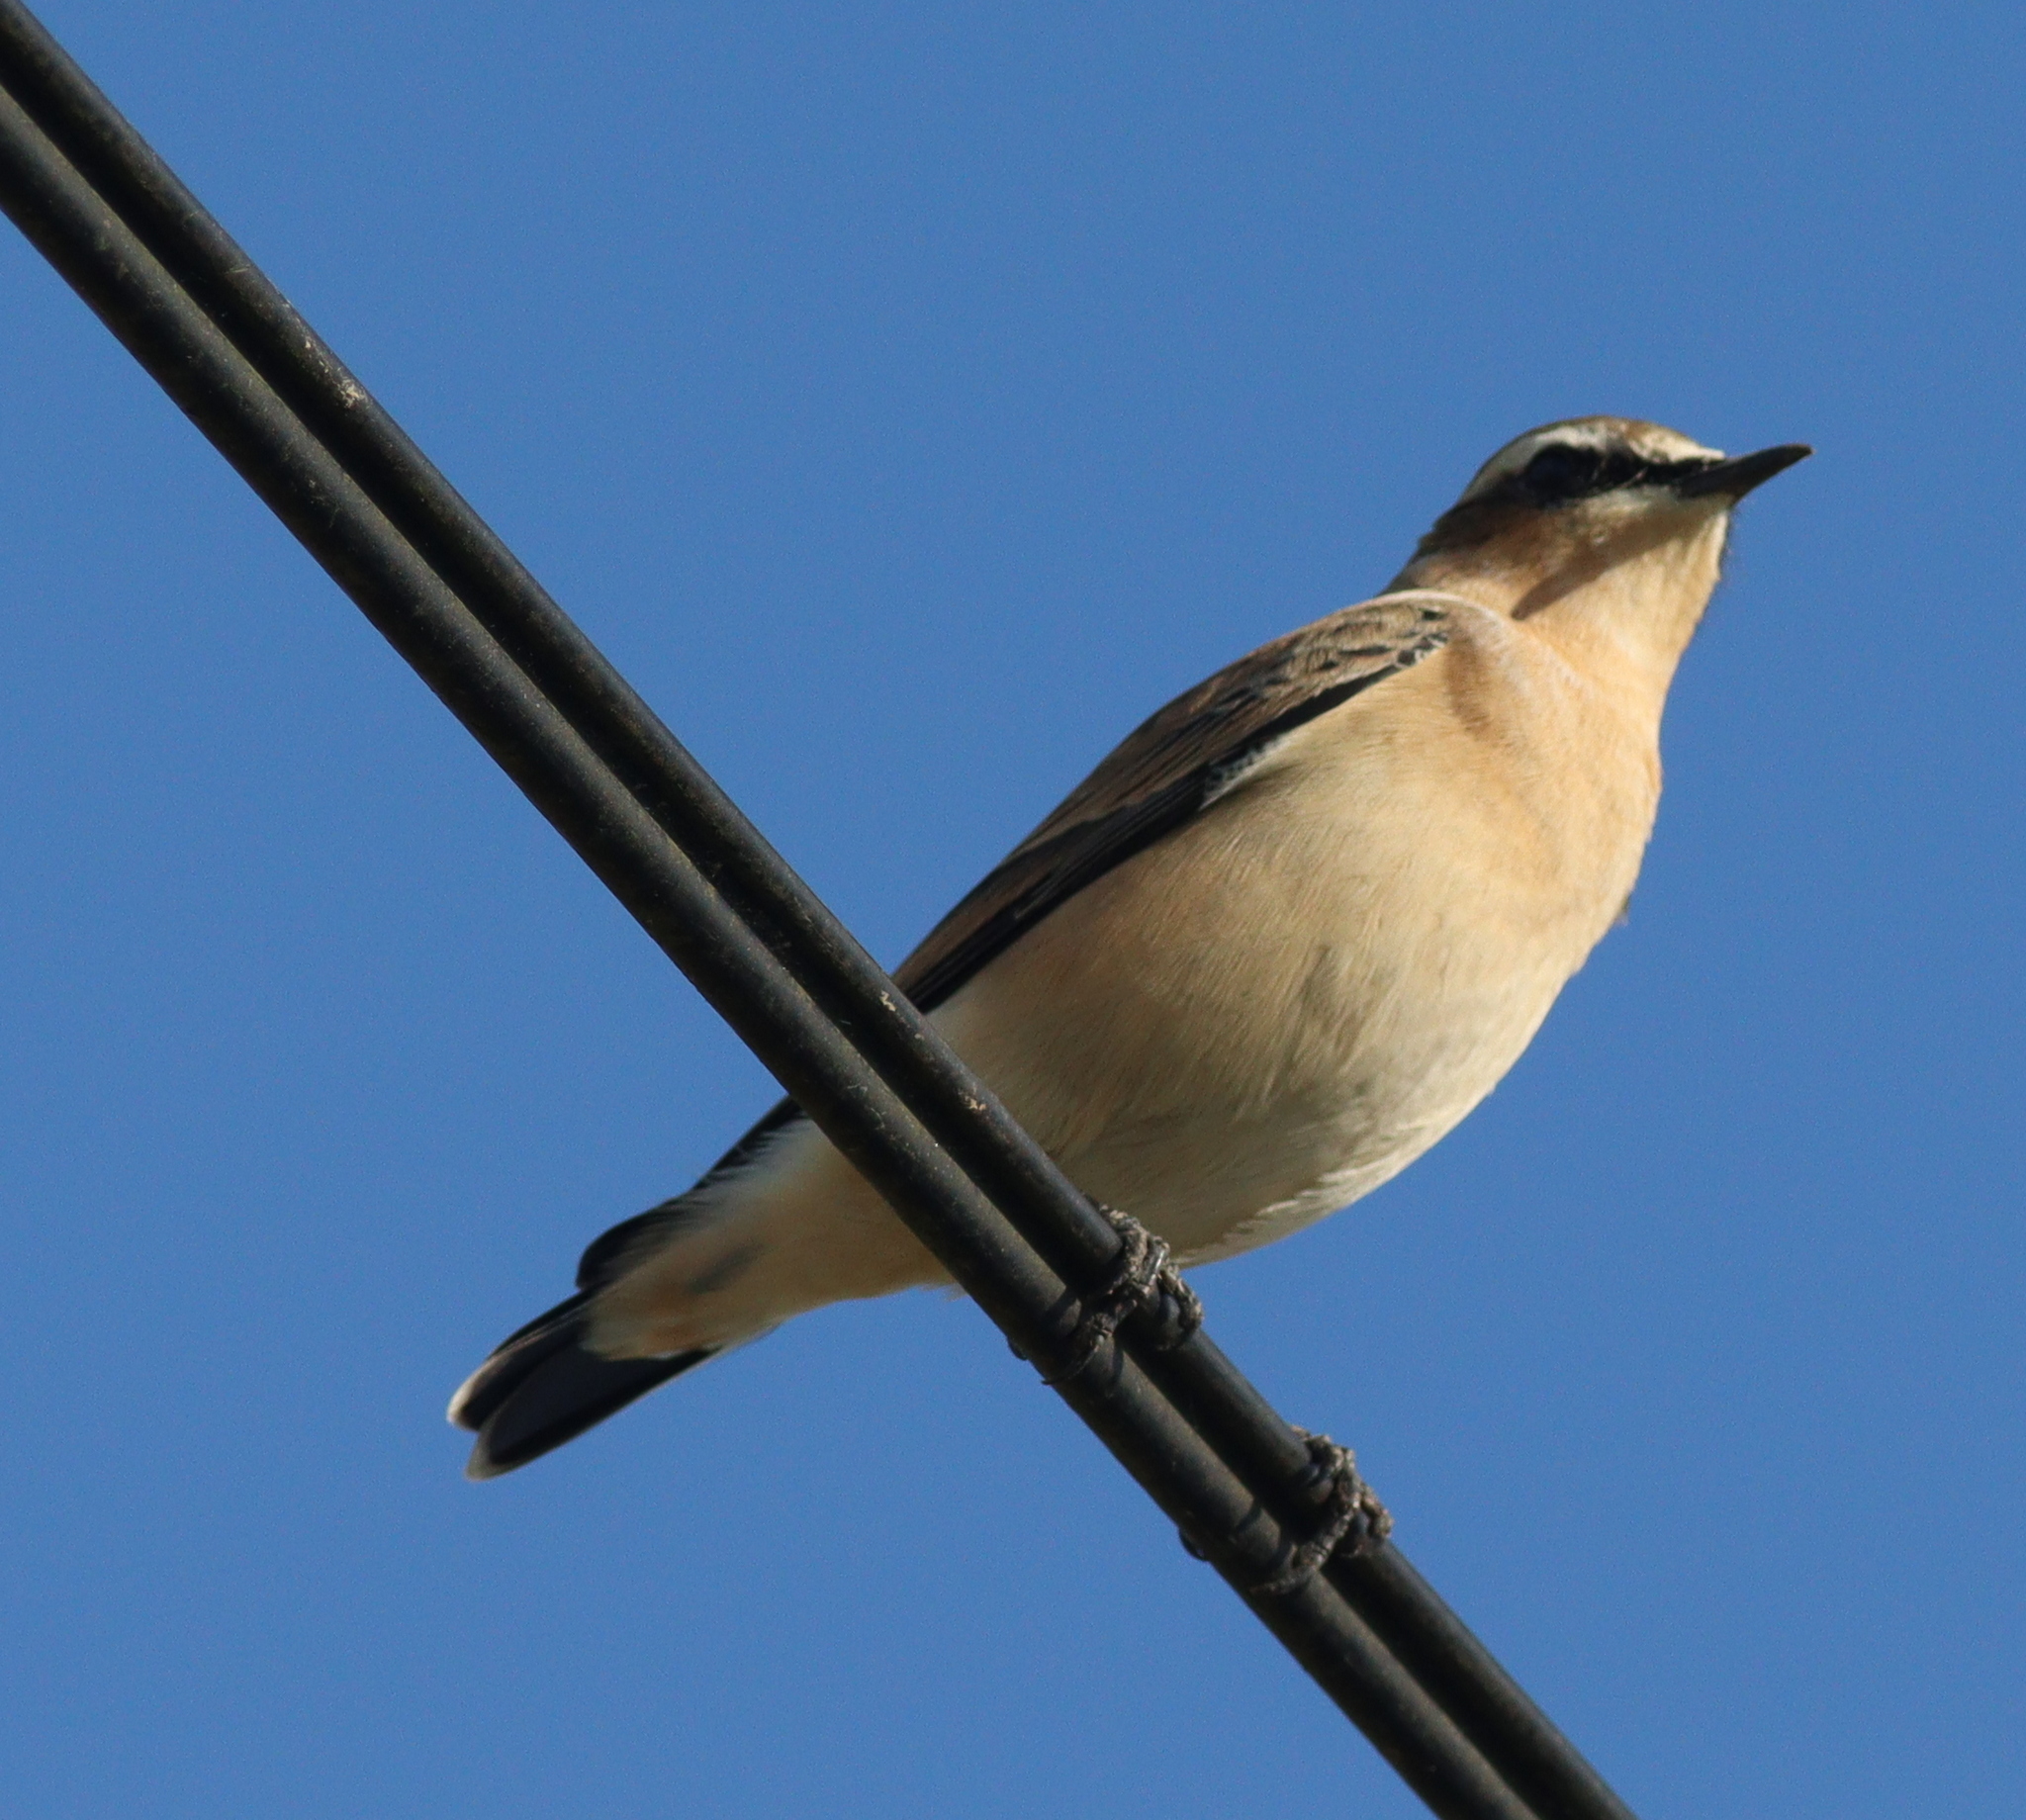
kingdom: Animalia
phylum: Chordata
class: Aves
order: Passeriformes
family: Muscicapidae
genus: Oenanthe
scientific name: Oenanthe oenanthe
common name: Northern wheatear
